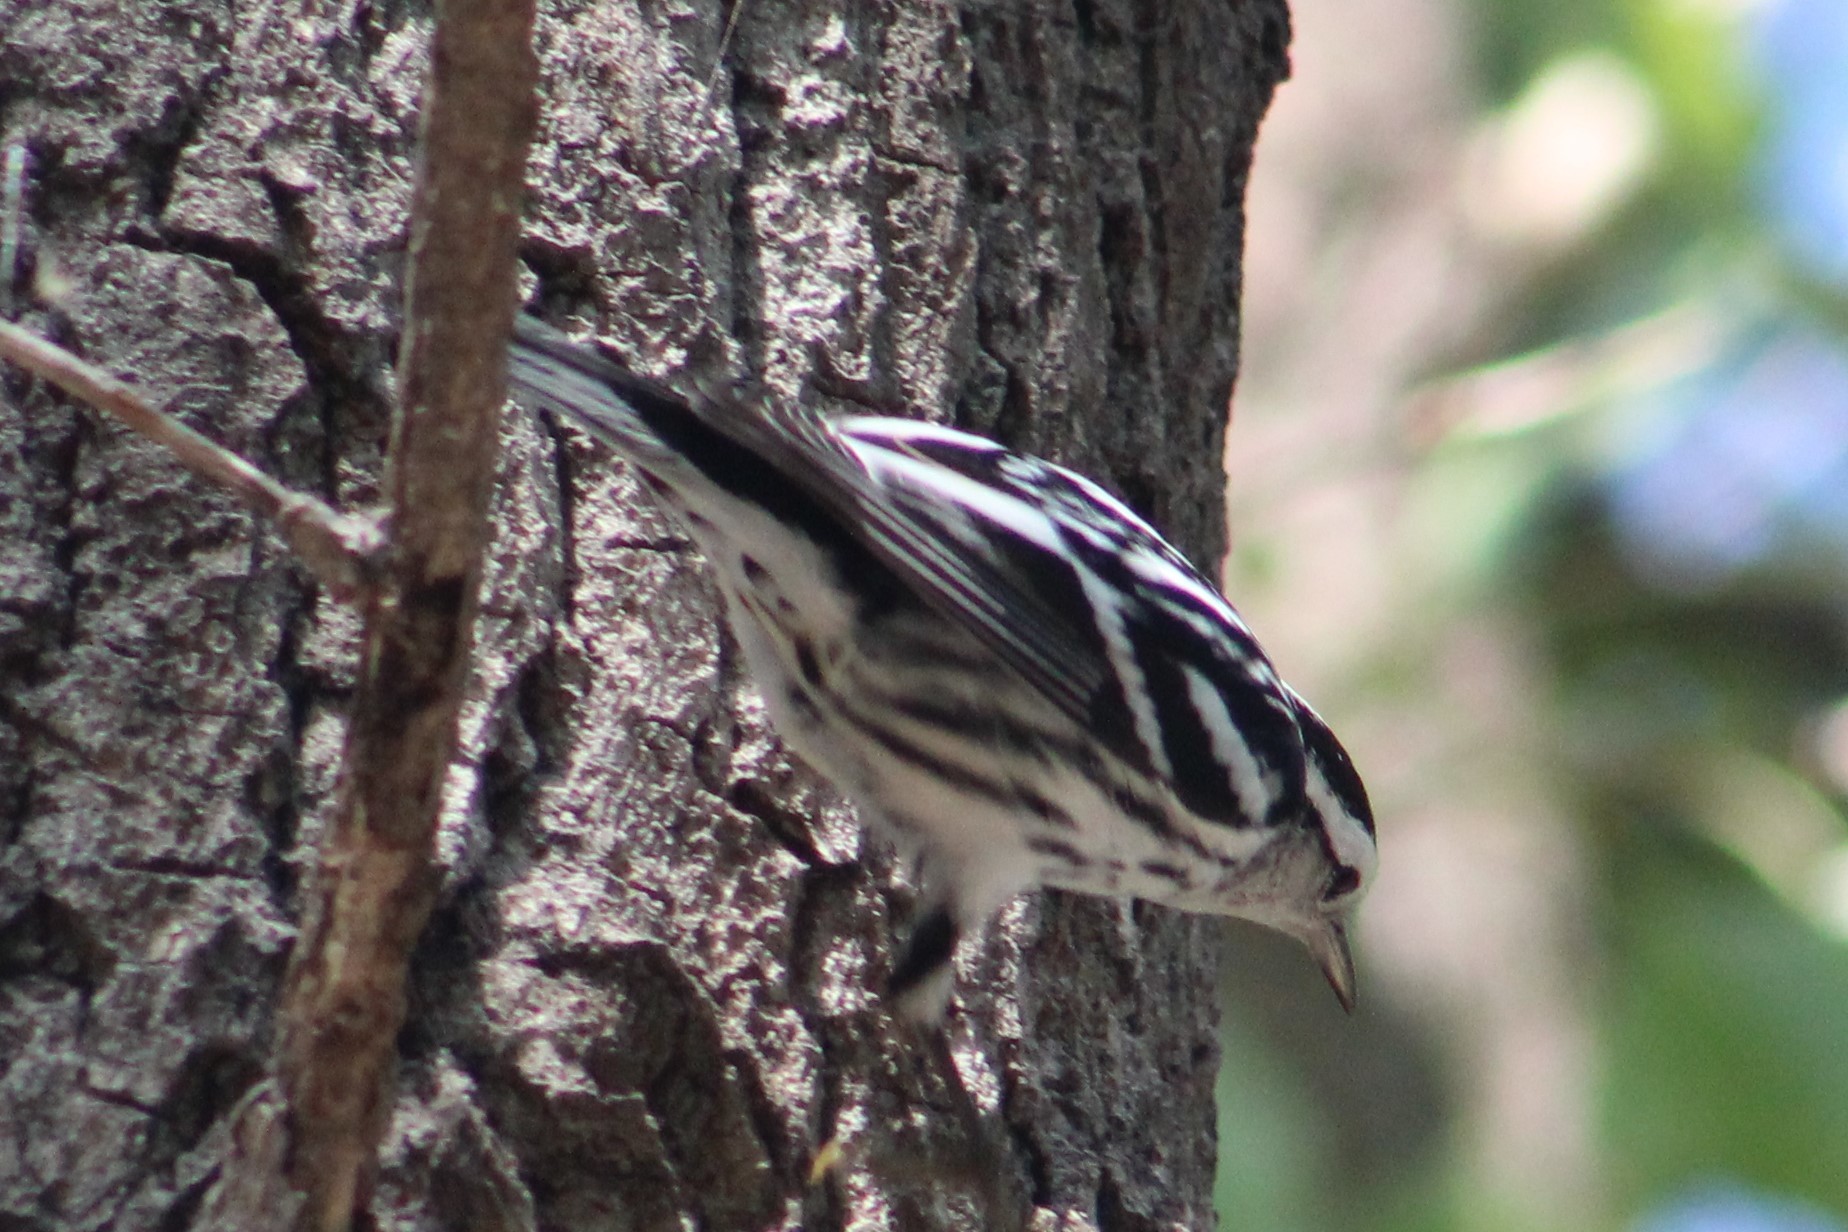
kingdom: Animalia
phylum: Chordata
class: Aves
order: Passeriformes
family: Parulidae
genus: Mniotilta
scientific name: Mniotilta varia
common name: Black-and-white warbler
